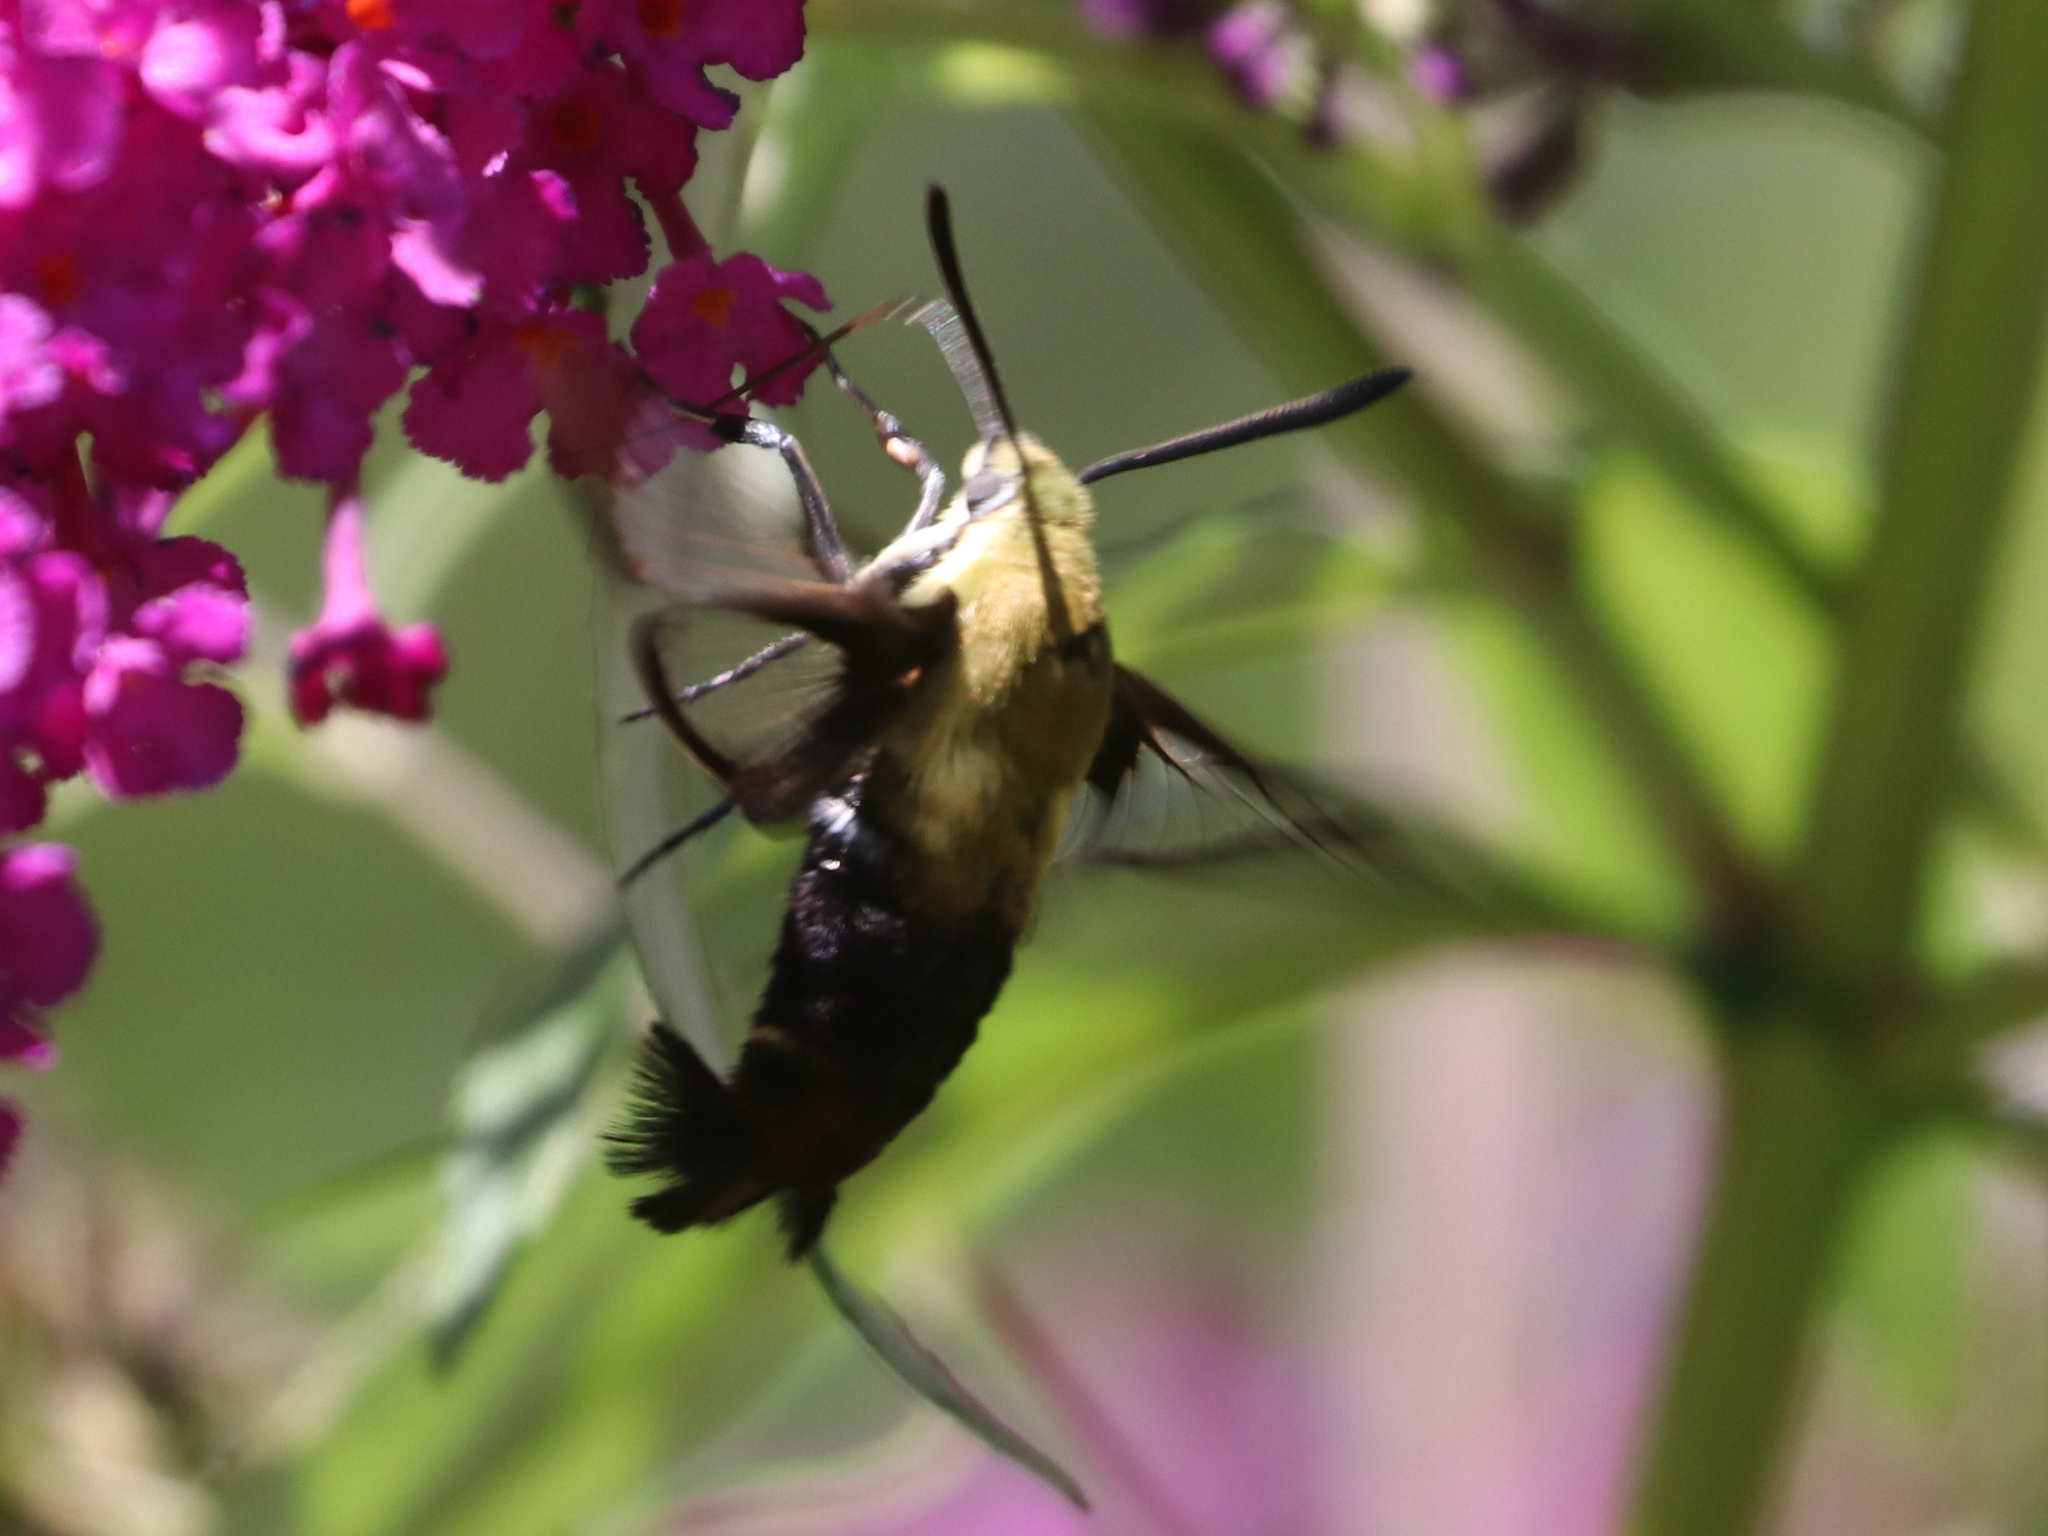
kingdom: Animalia
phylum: Arthropoda
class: Insecta
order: Lepidoptera
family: Sphingidae
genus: Hemaris
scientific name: Hemaris diffinis
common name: Bumblebee moth
